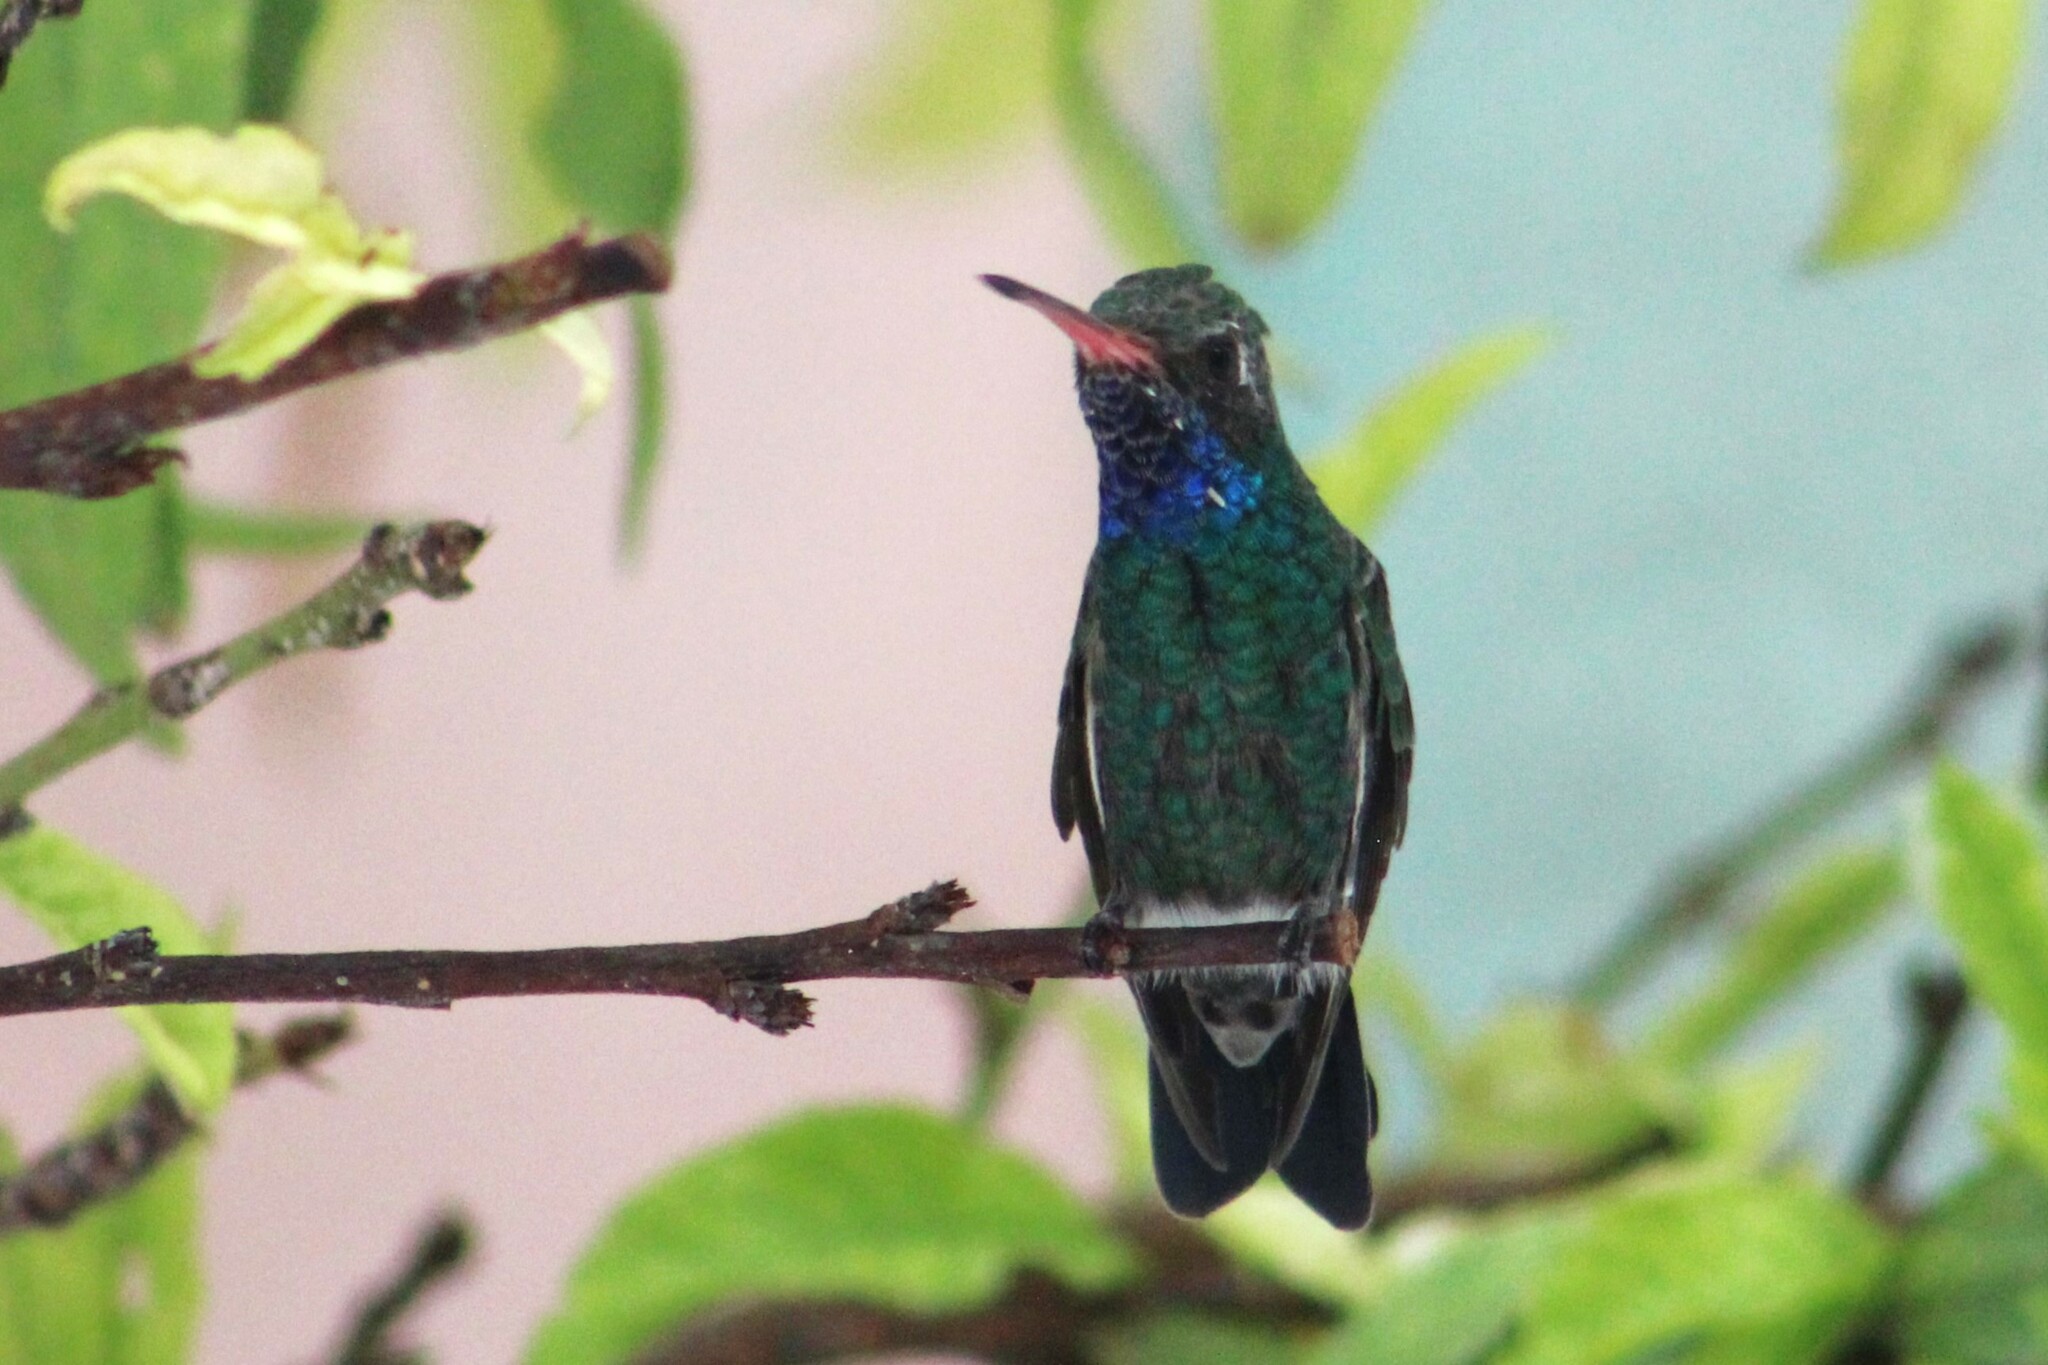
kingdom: Animalia
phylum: Chordata
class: Aves
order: Apodiformes
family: Trochilidae
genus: Cynanthus
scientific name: Cynanthus latirostris
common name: Broad-billed hummingbird
